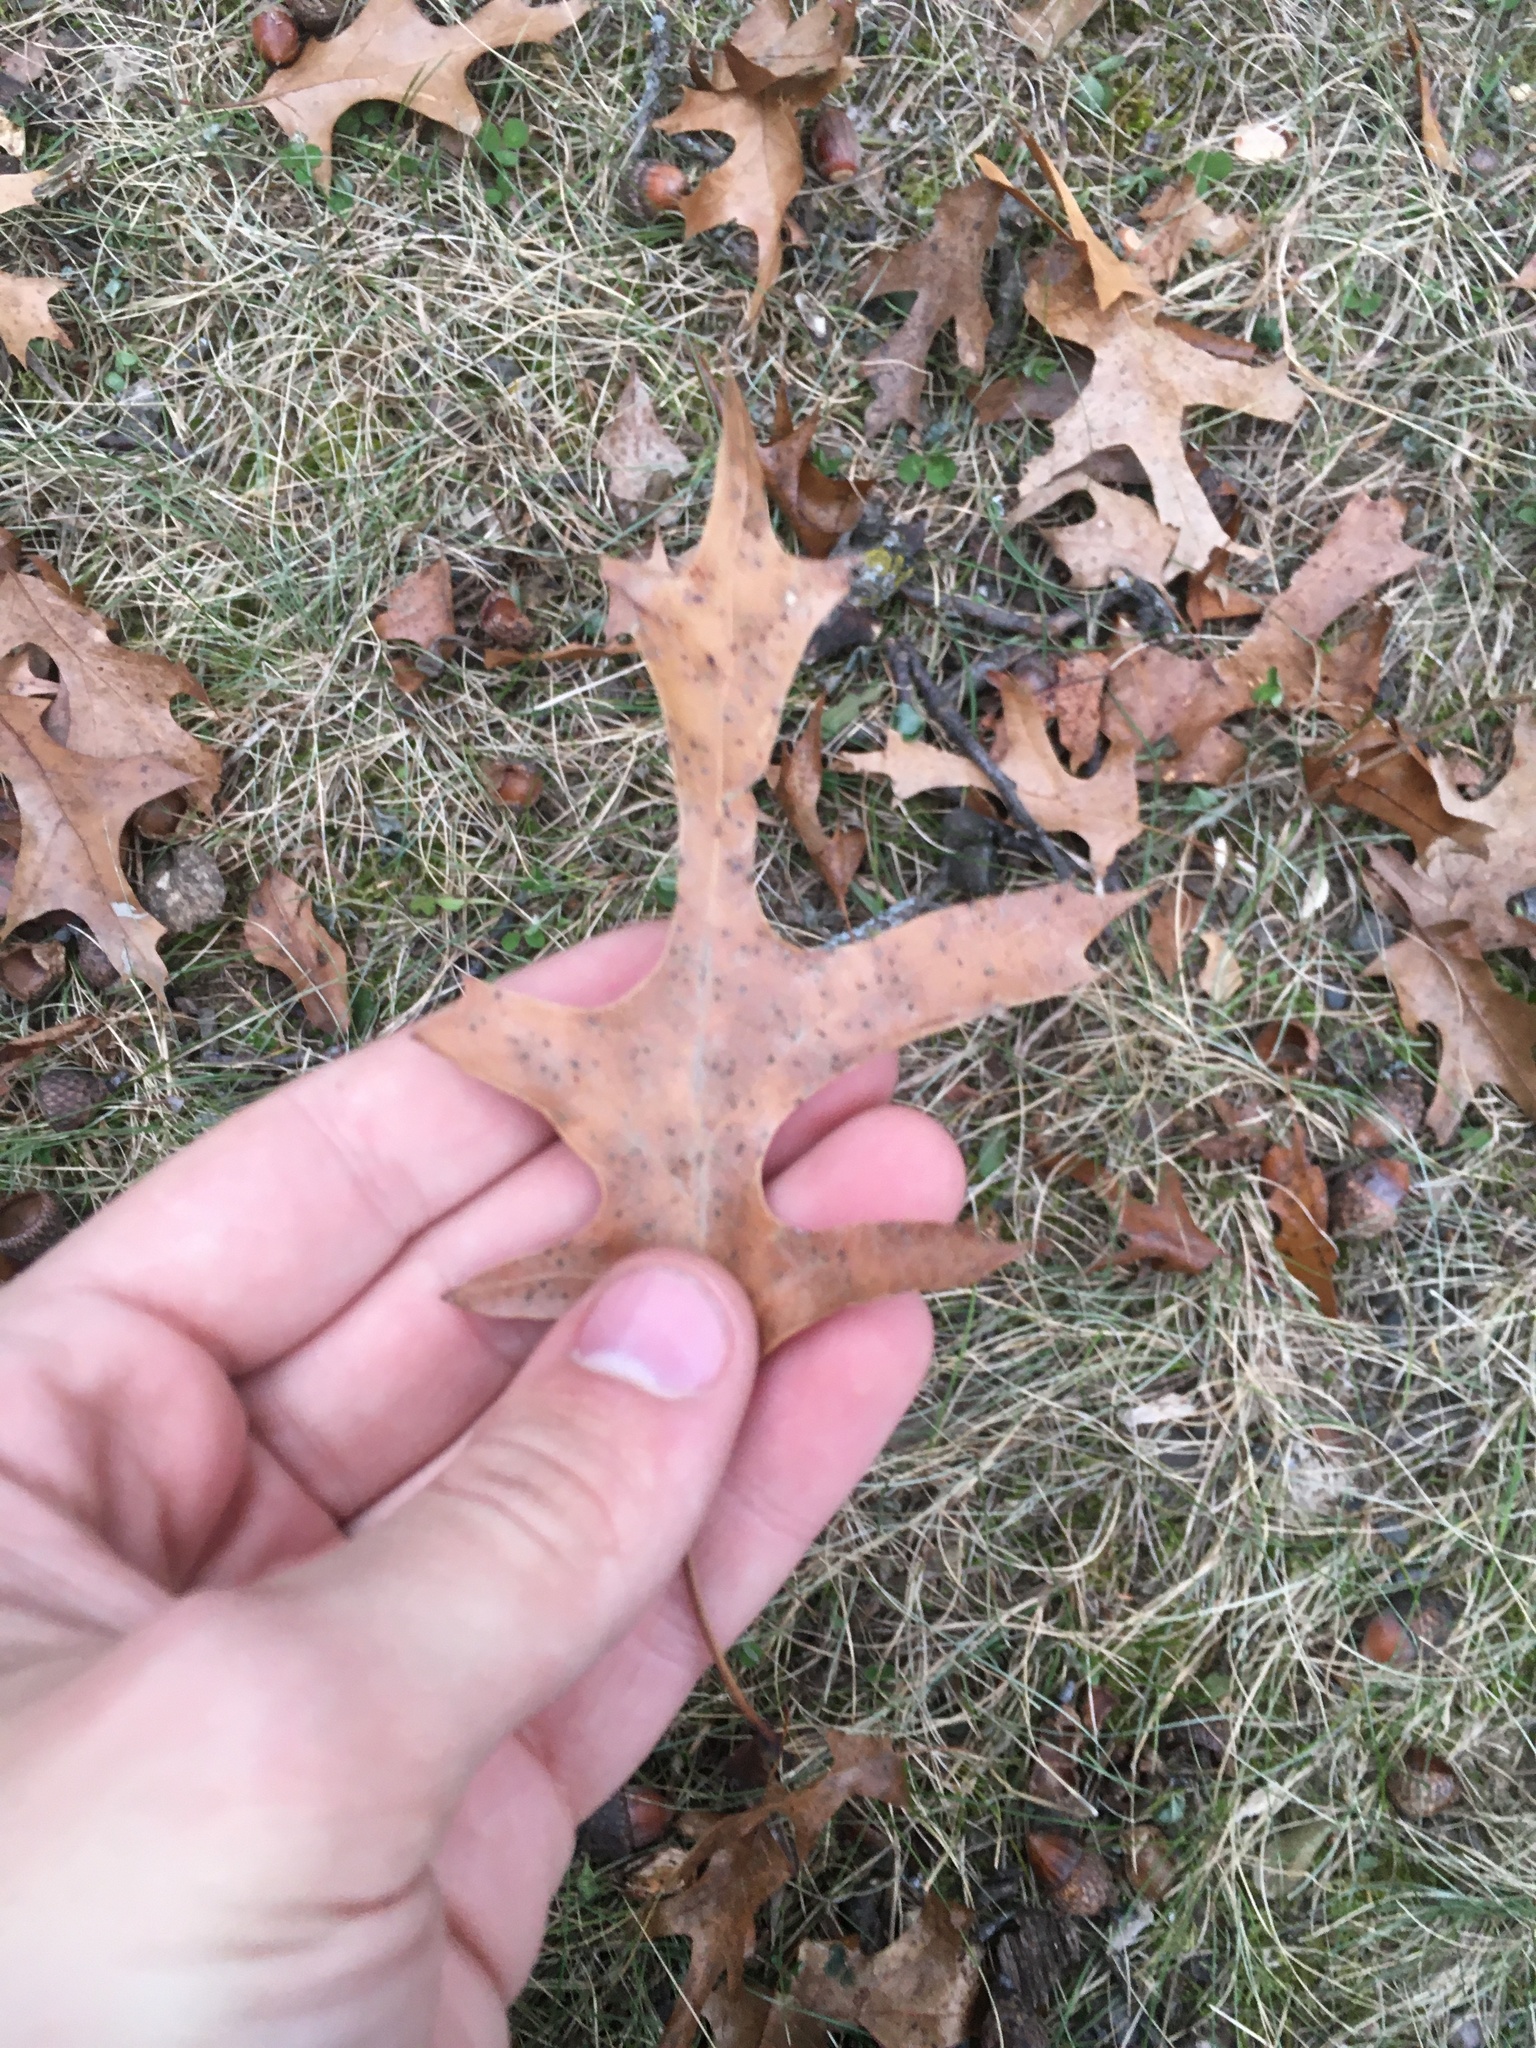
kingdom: Plantae
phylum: Tracheophyta
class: Magnoliopsida
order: Fagales
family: Fagaceae
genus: Quercus
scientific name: Quercus ellipsoidalis
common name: Hill's oak
